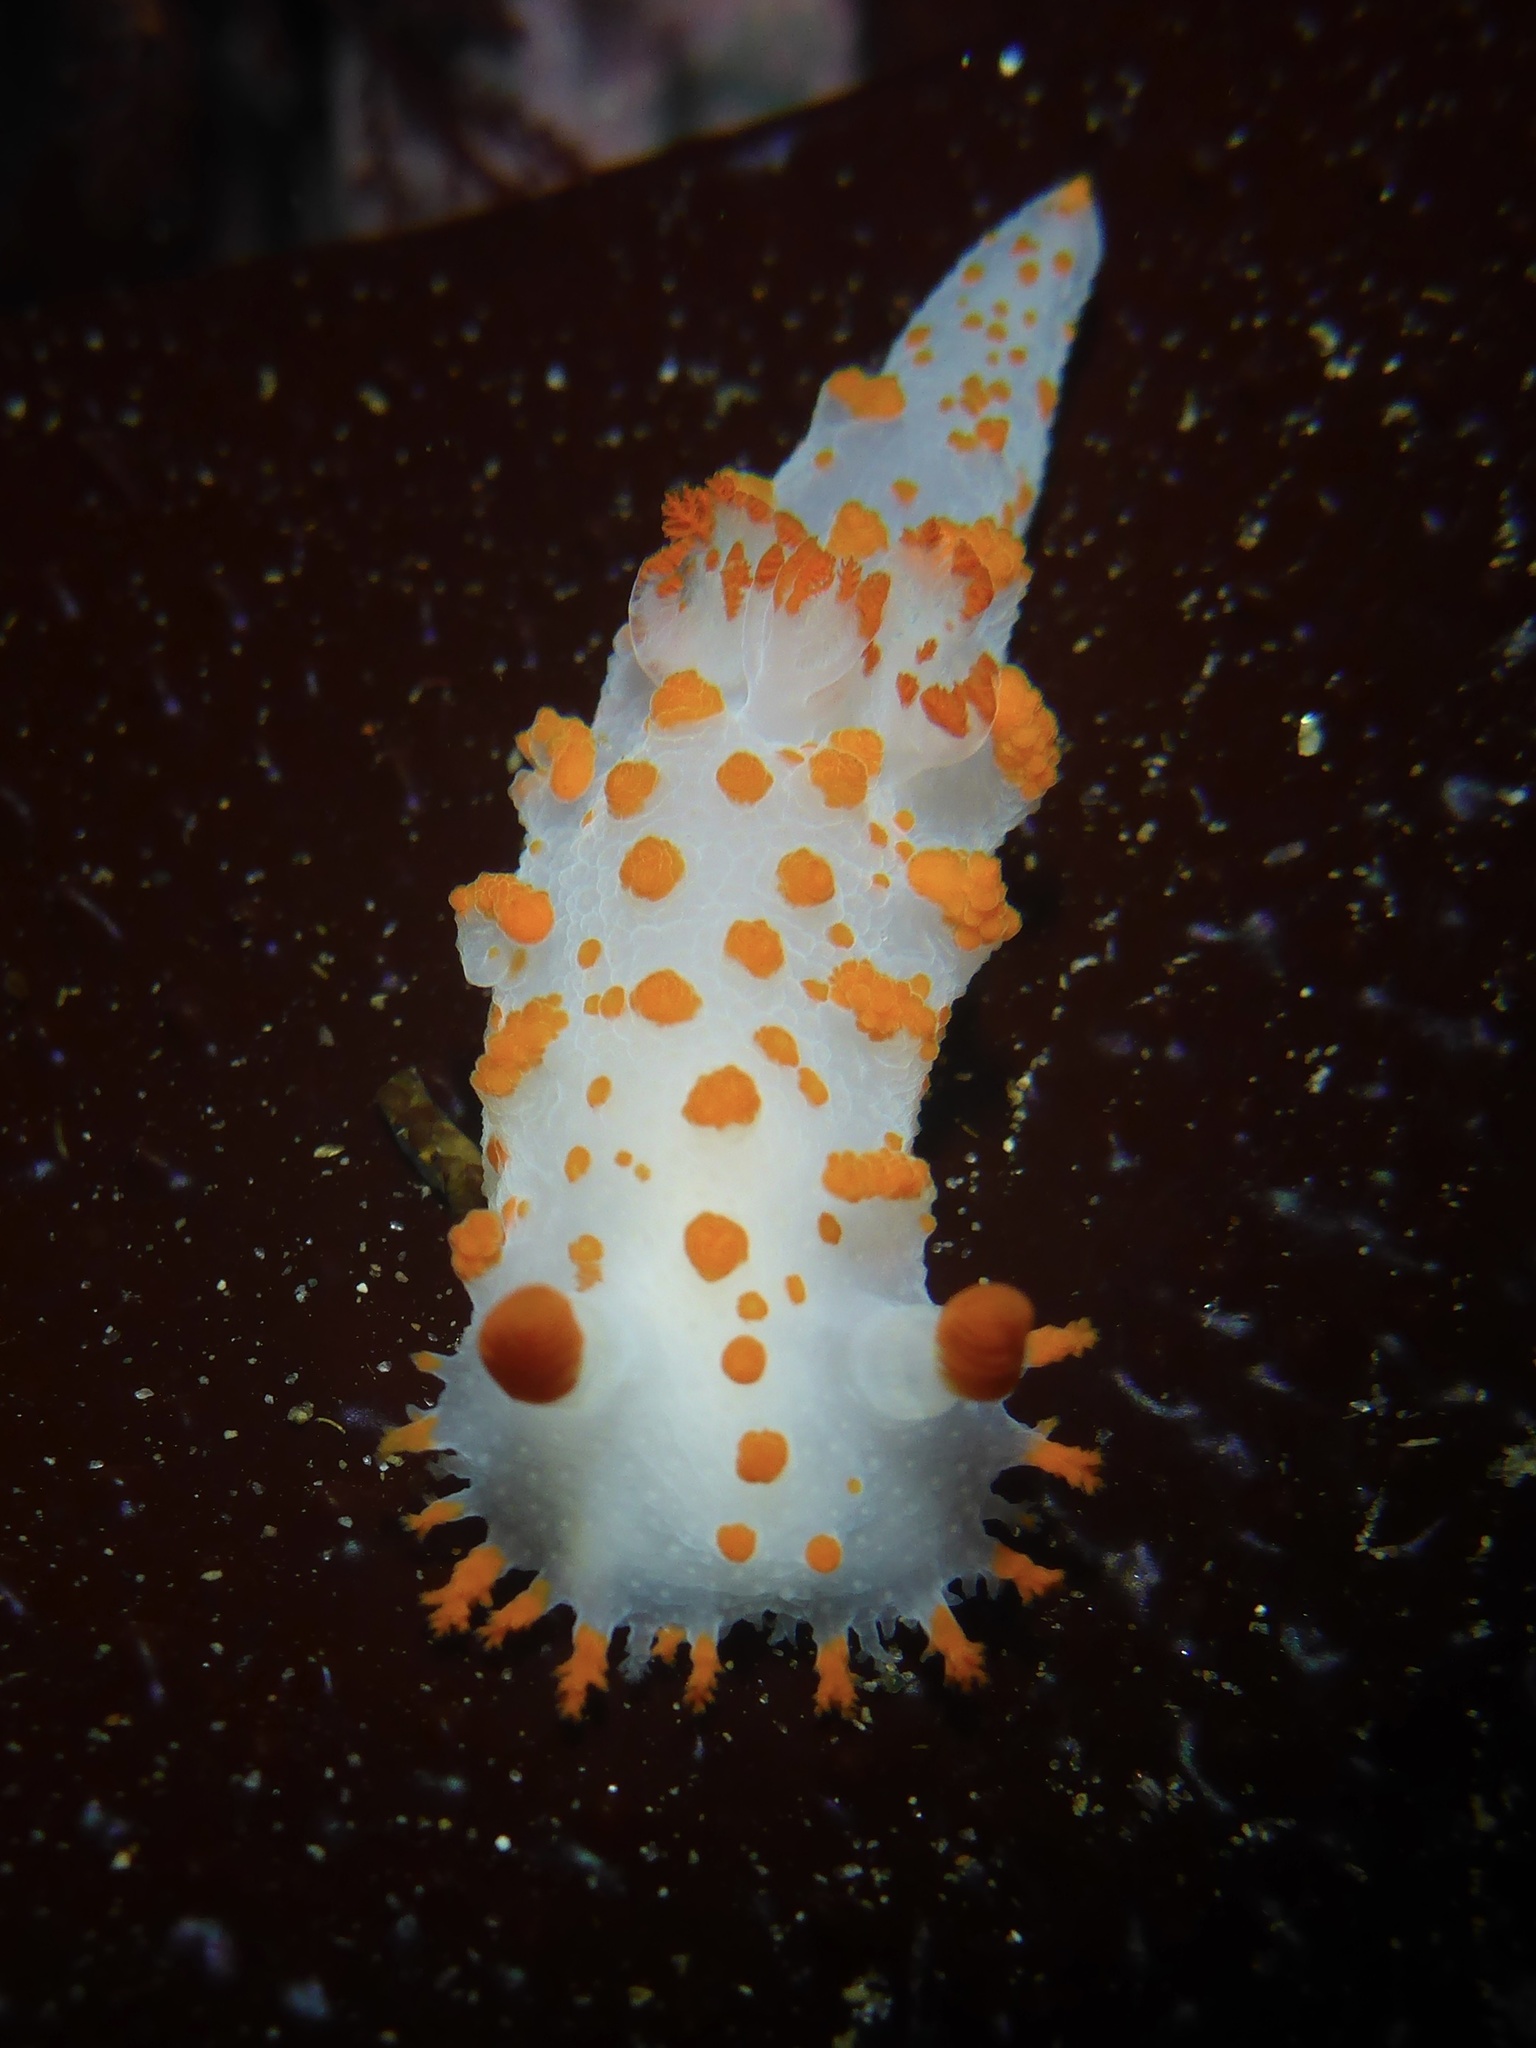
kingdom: Animalia
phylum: Mollusca
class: Gastropoda
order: Nudibranchia
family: Polyceridae
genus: Triopha
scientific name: Triopha catalinae
